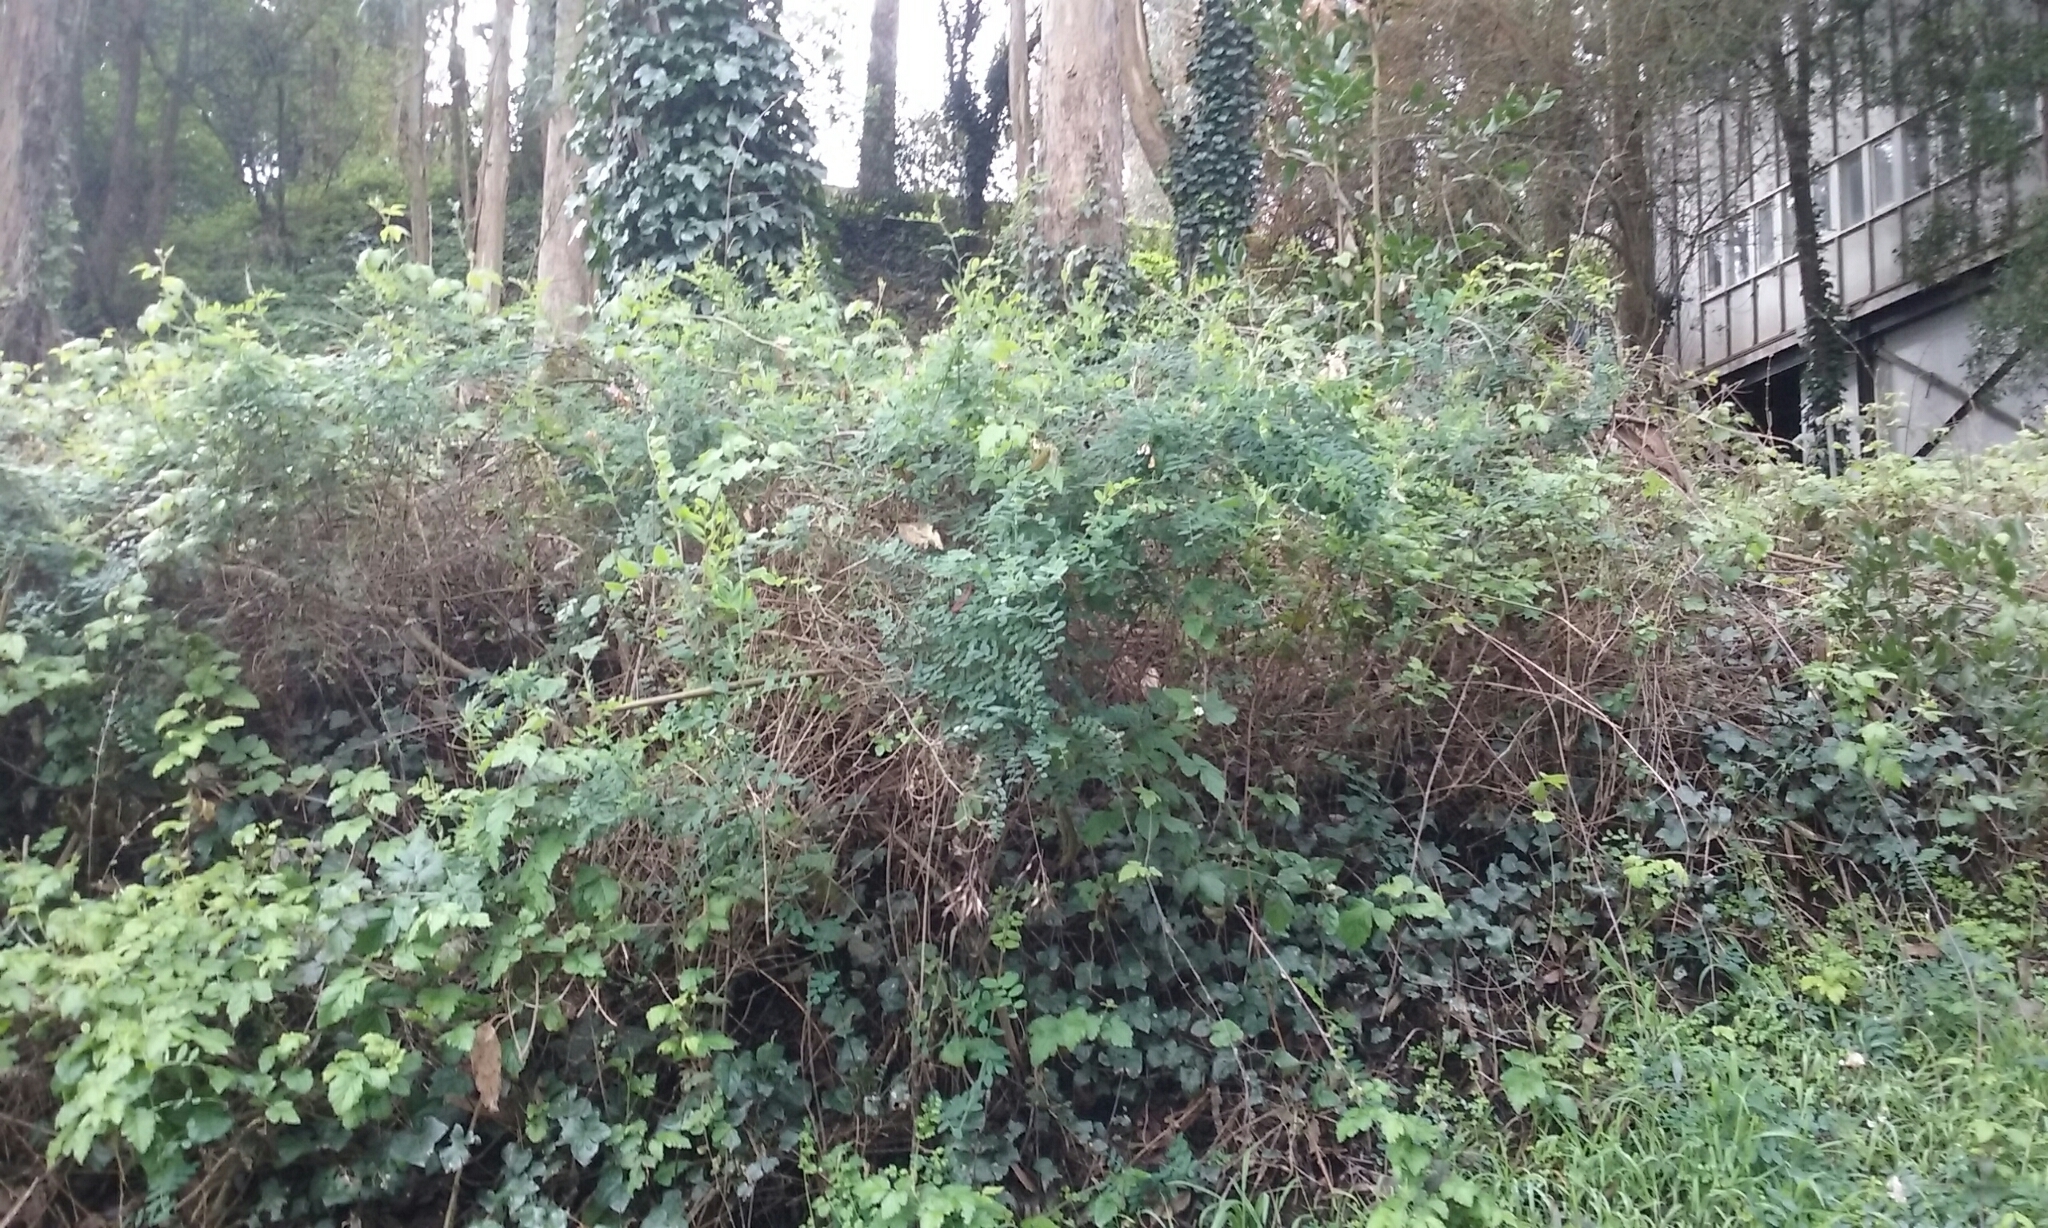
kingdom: Plantae
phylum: Tracheophyta
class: Magnoliopsida
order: Fabales
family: Fabaceae
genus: Lathyrus
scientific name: Lathyrus vestitus
